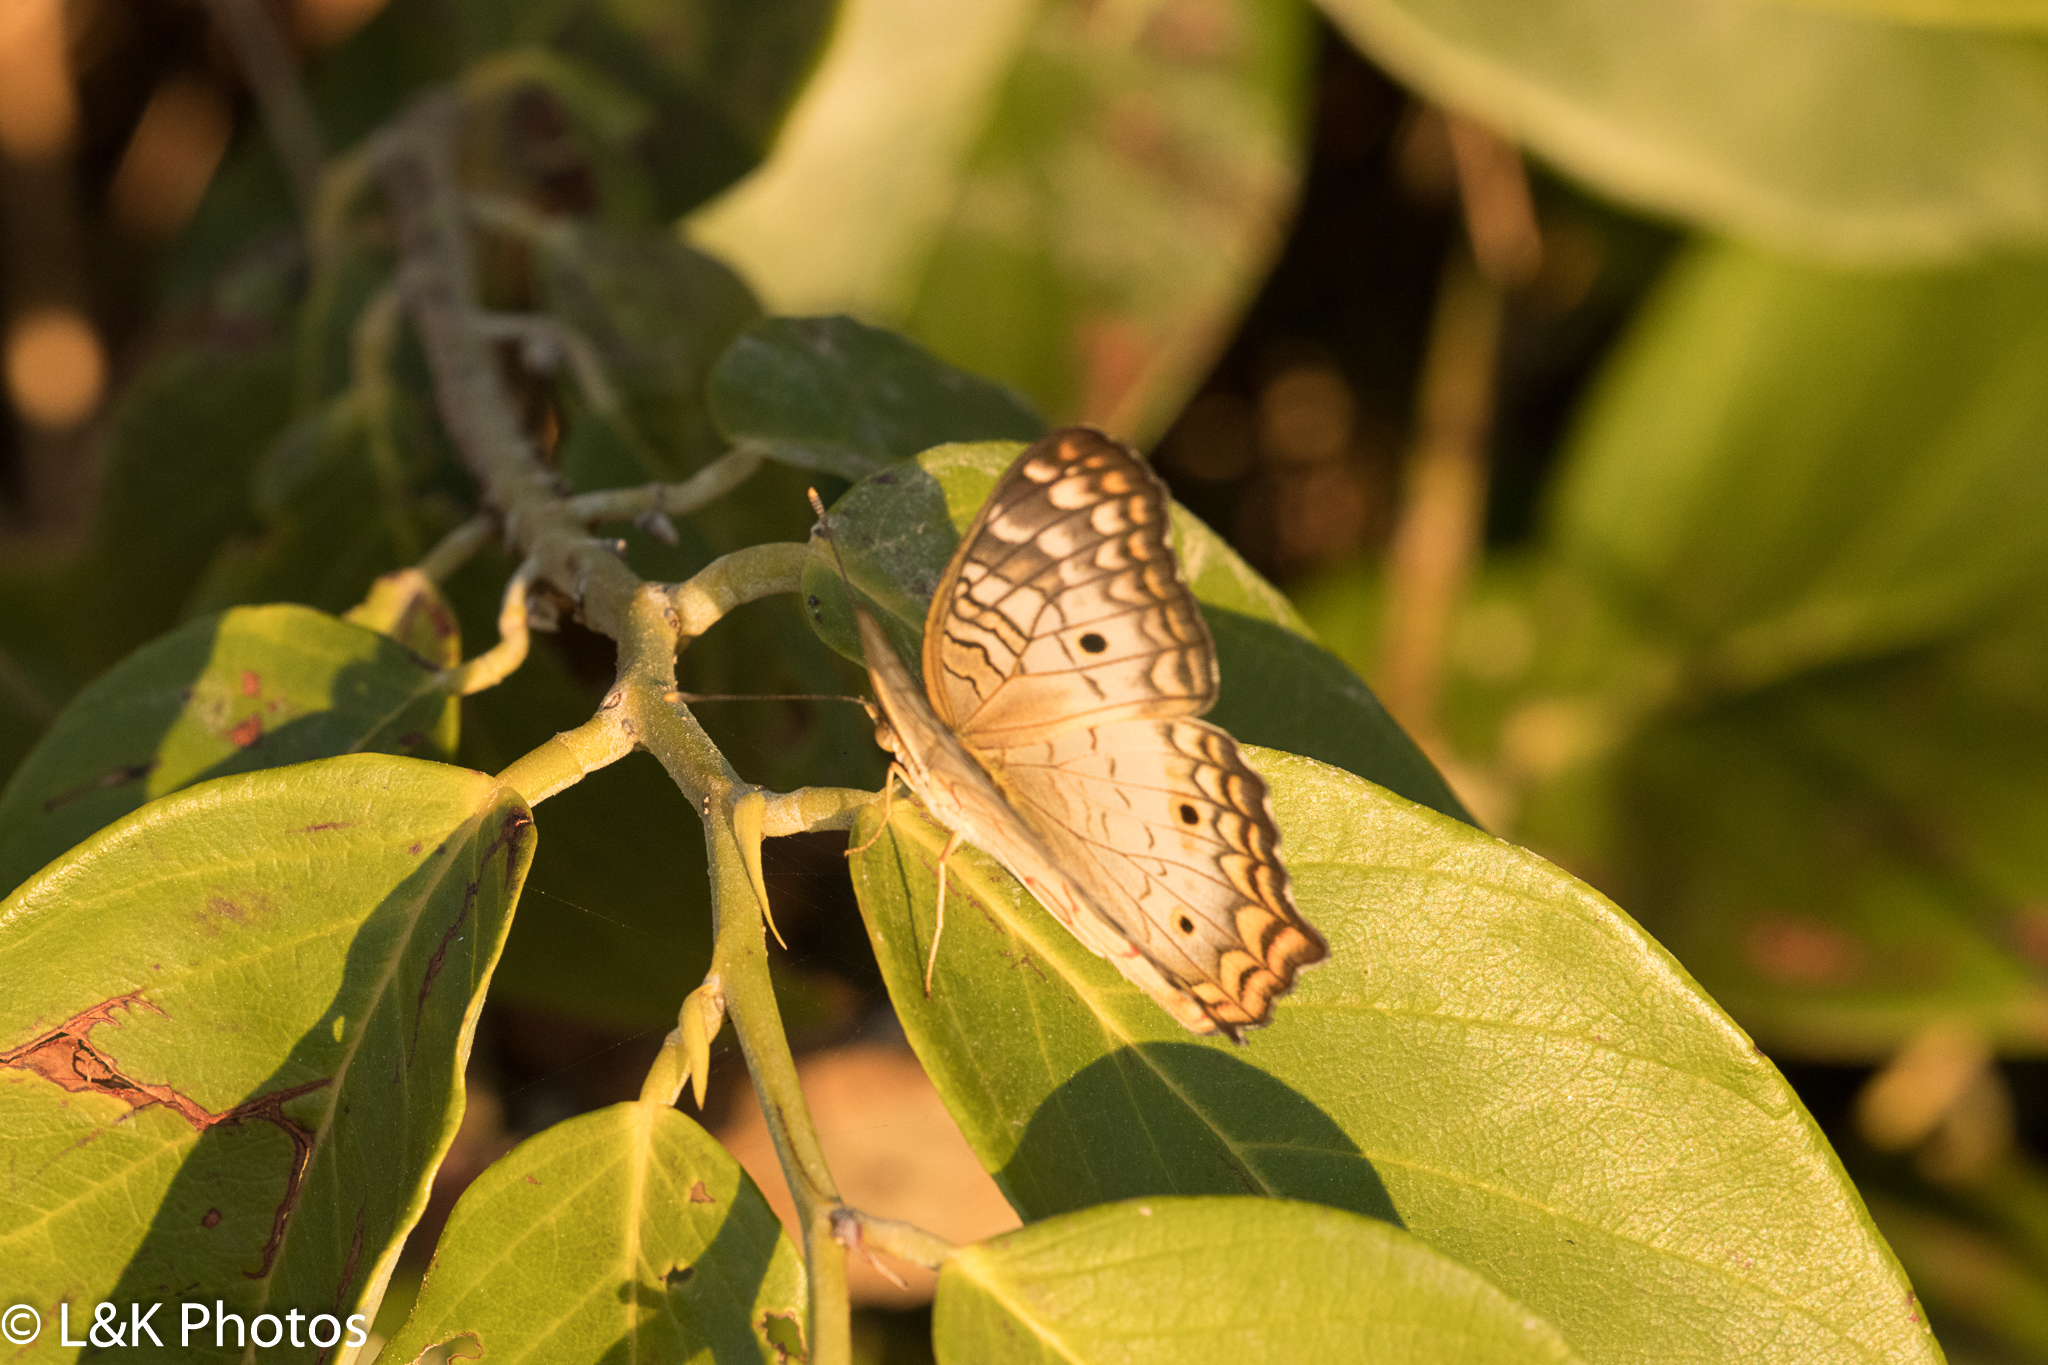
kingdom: Animalia
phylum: Arthropoda
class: Insecta
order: Lepidoptera
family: Nymphalidae
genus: Anartia
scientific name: Anartia jatrophae
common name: White peacock
